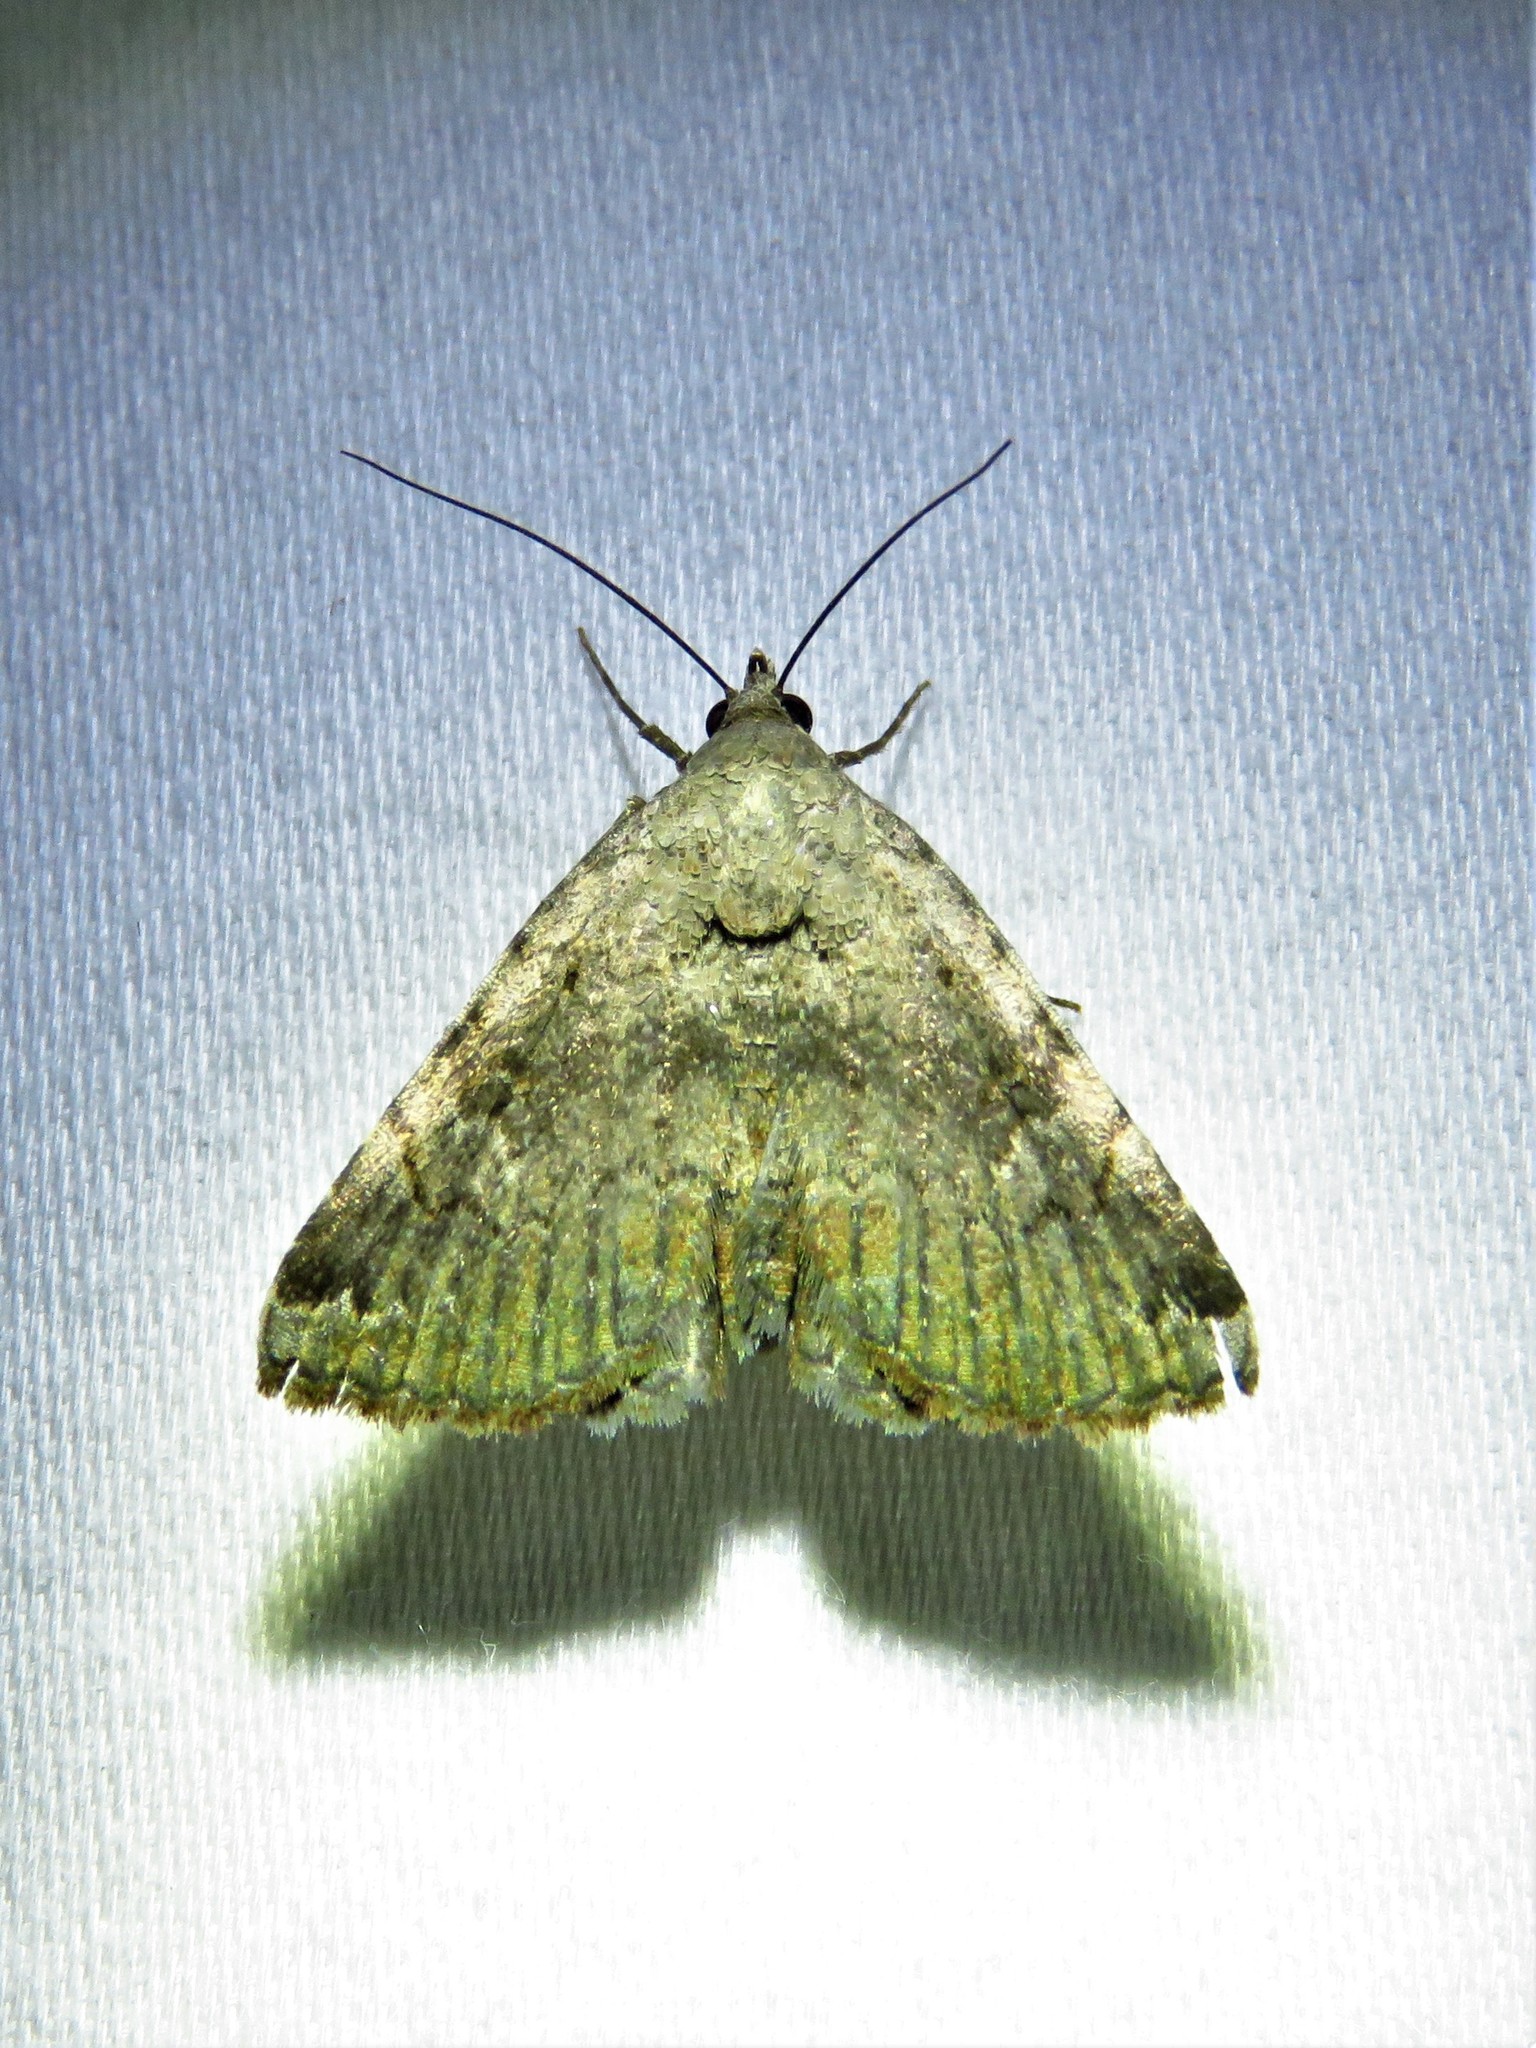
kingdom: Animalia
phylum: Arthropoda
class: Insecta
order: Lepidoptera
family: Erebidae
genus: Toxonprucha
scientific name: Toxonprucha crudelis
